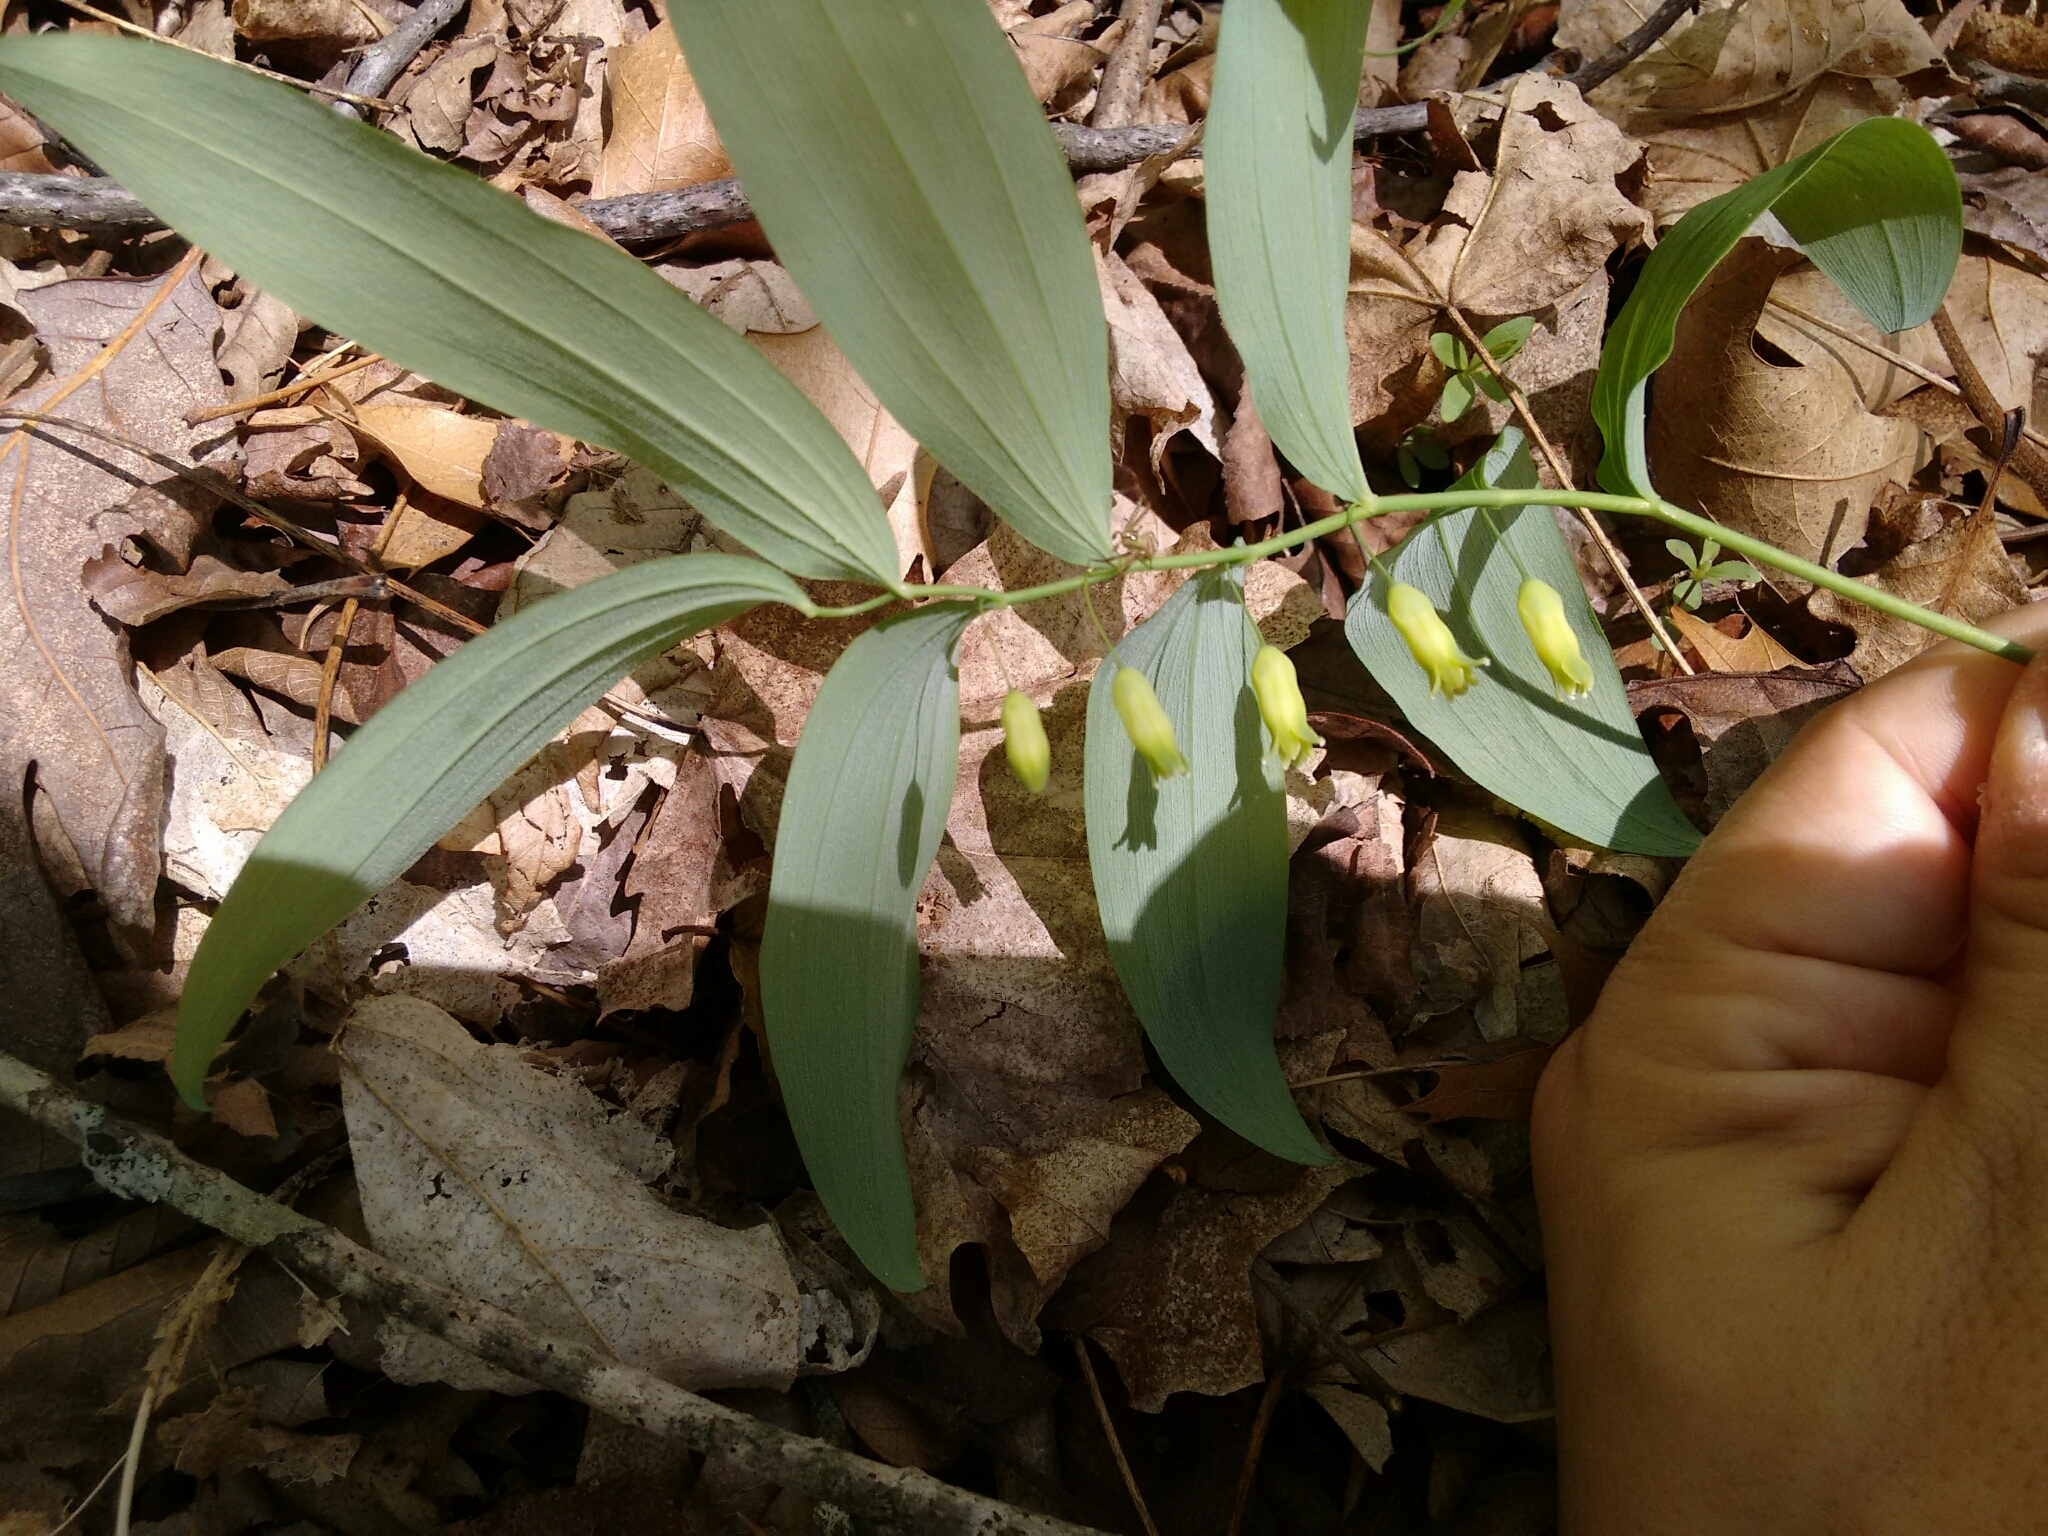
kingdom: Plantae
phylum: Tracheophyta
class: Liliopsida
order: Asparagales
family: Asparagaceae
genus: Polygonatum
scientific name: Polygonatum pubescens
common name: Downy solomon's seal
